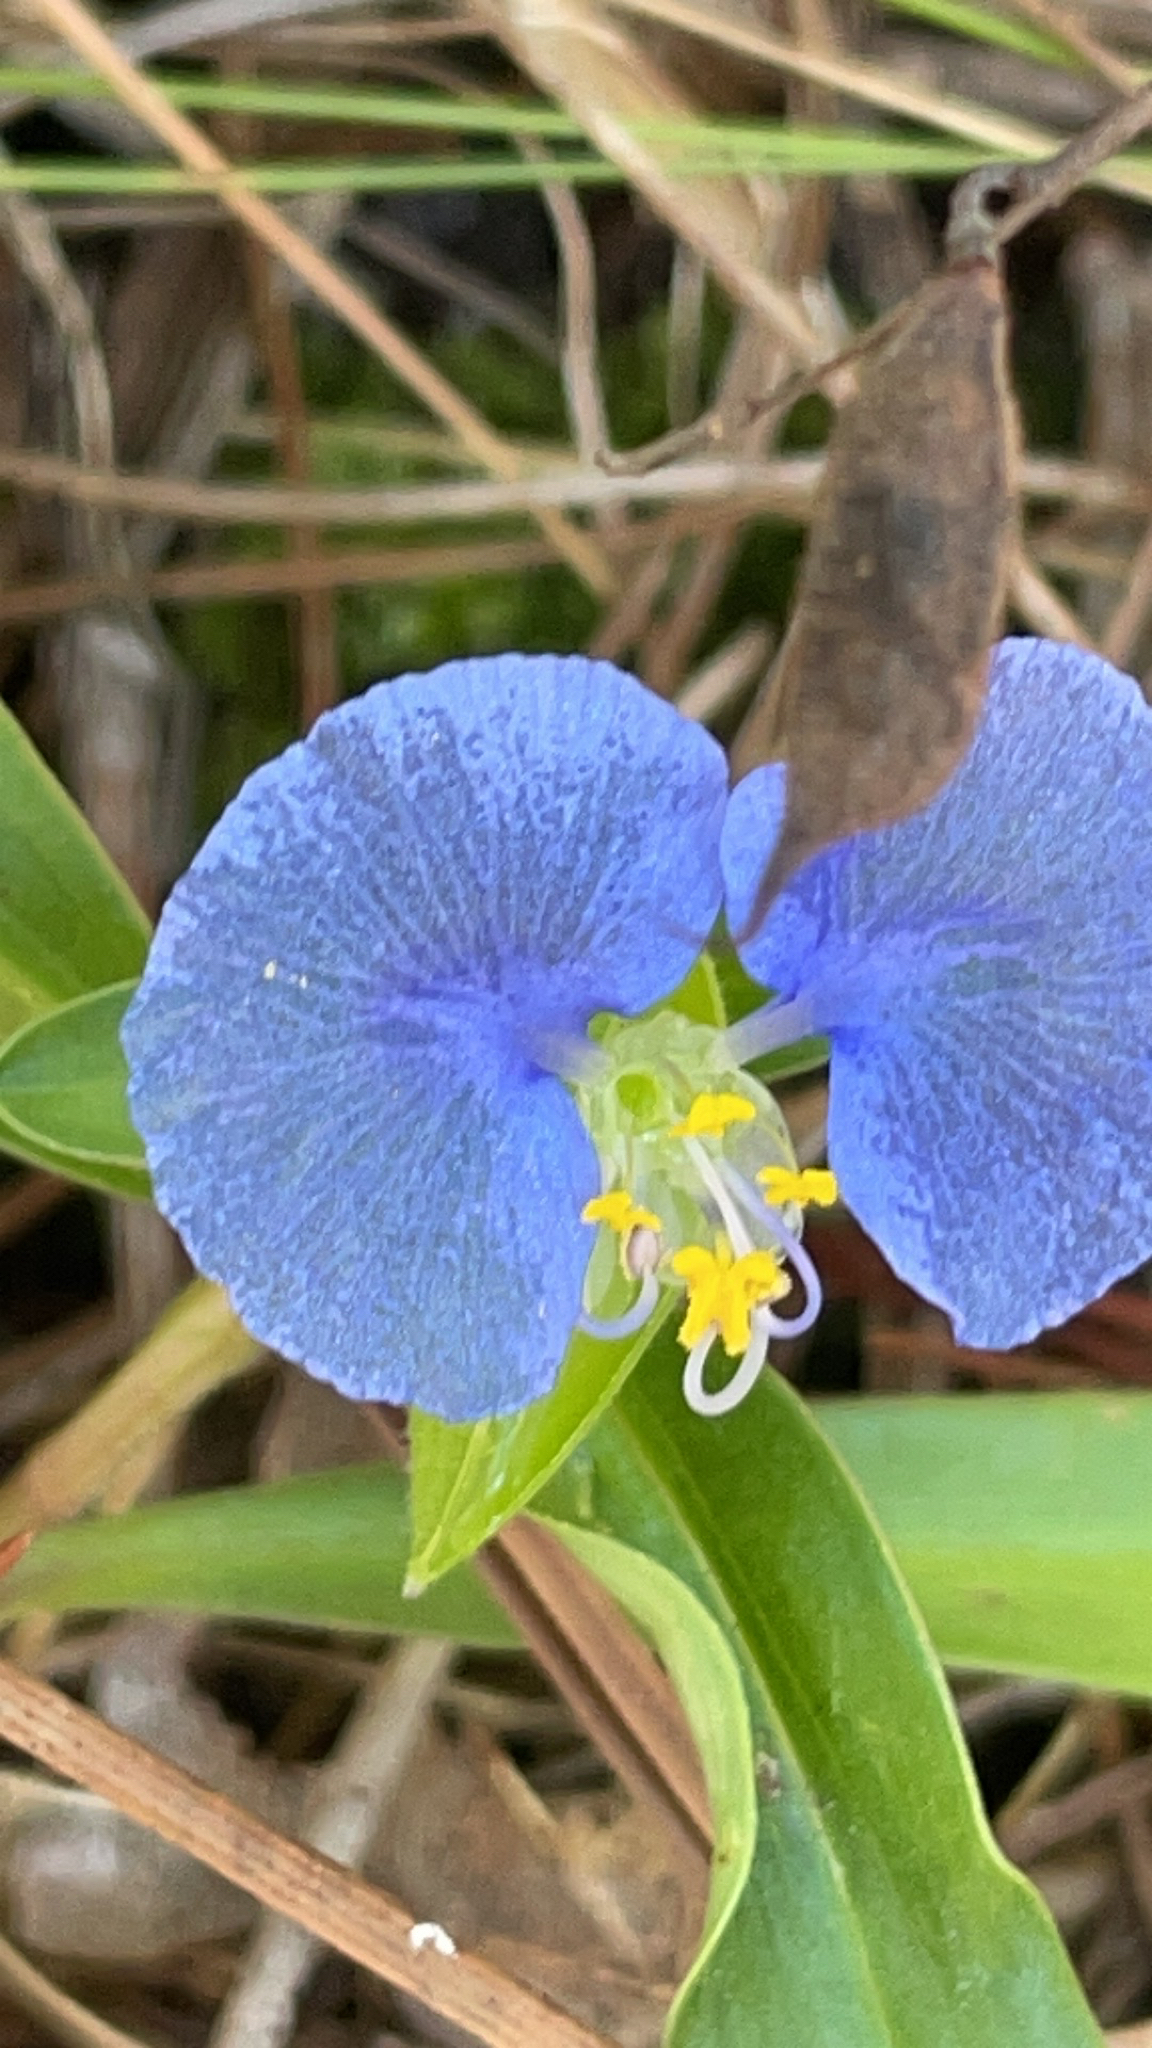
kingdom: Plantae
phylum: Tracheophyta
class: Liliopsida
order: Commelinales
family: Commelinaceae
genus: Commelina
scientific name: Commelina erecta
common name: Blousel blommetjie
